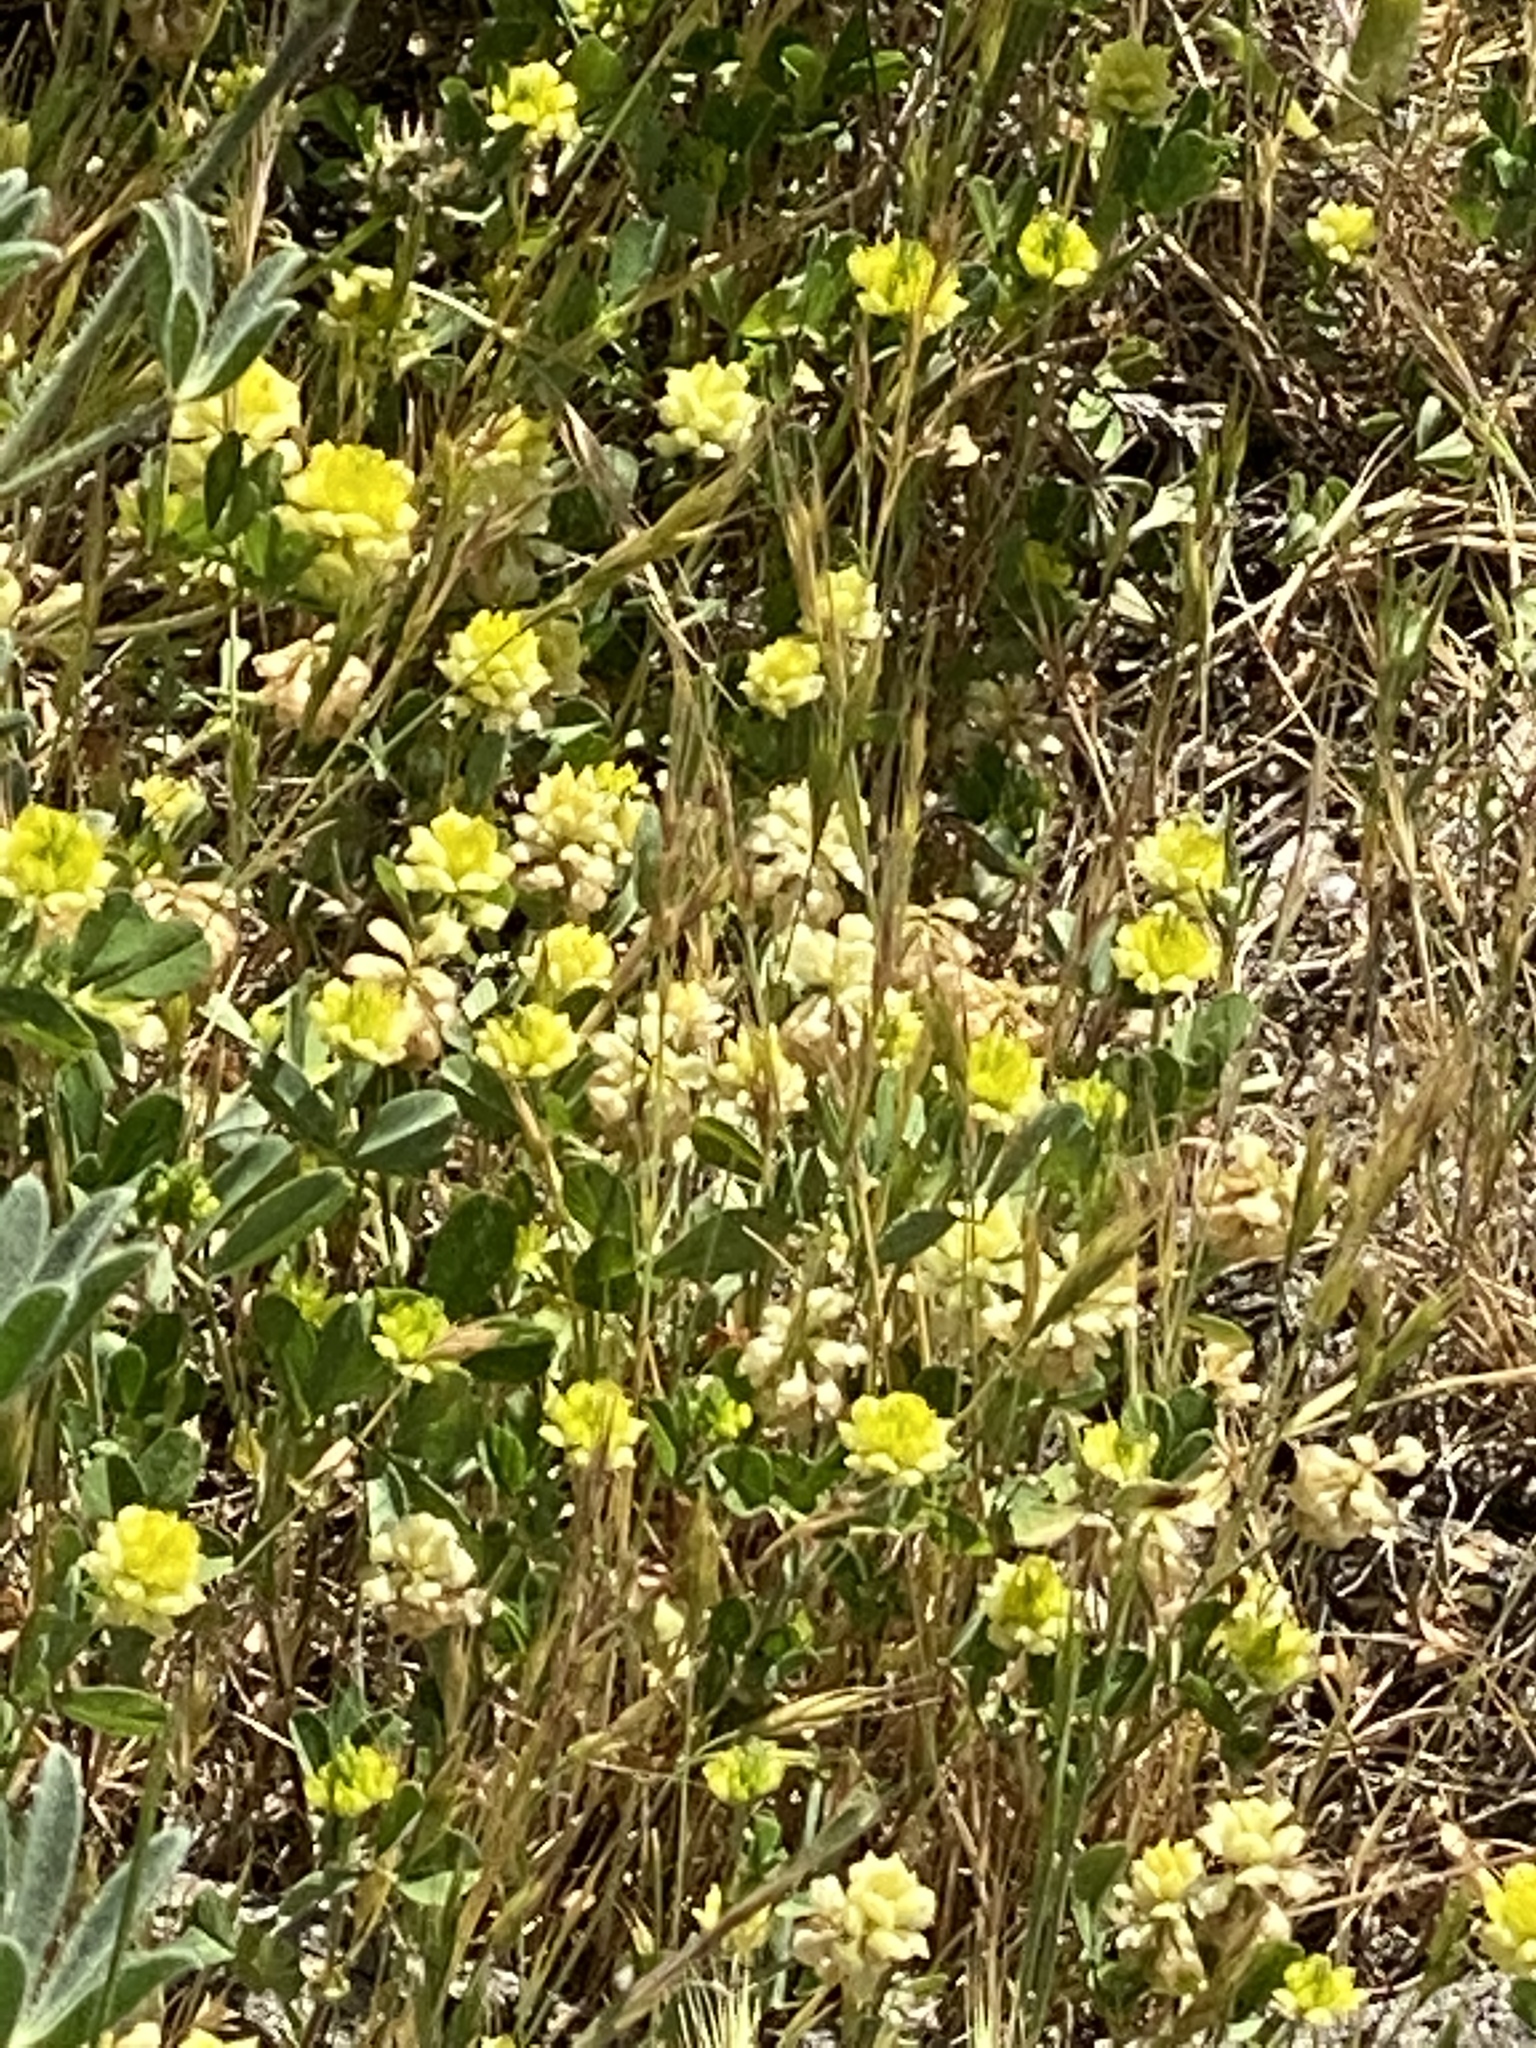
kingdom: Plantae
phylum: Tracheophyta
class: Magnoliopsida
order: Fabales
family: Fabaceae
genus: Trifolium
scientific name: Trifolium campestre
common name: Field clover
